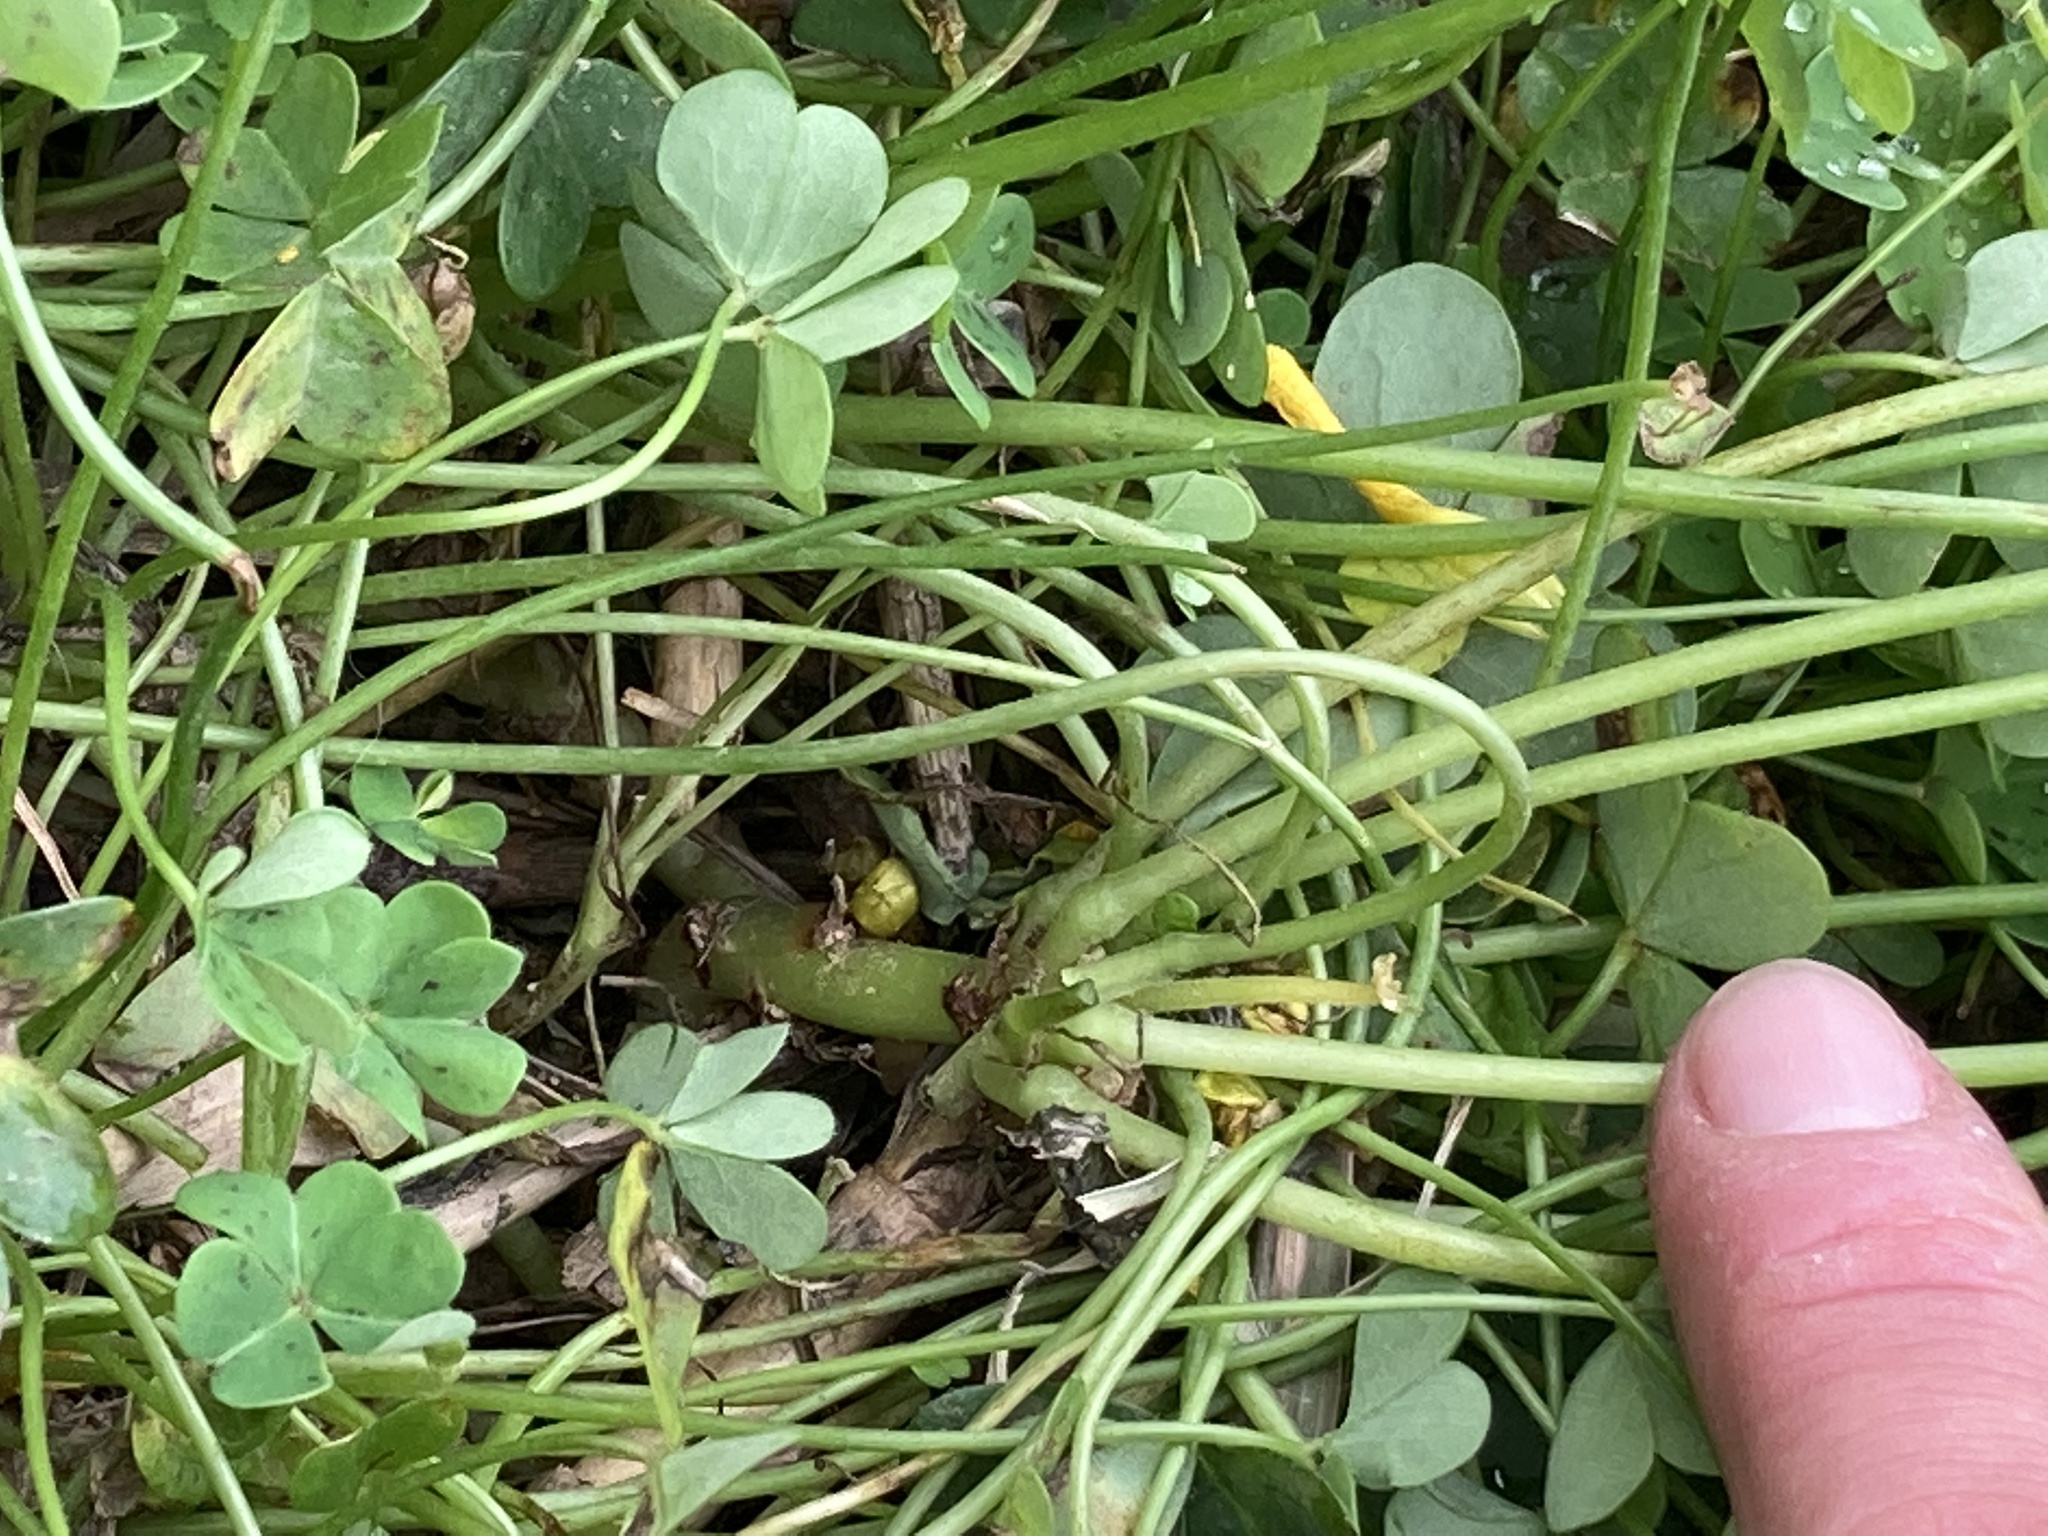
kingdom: Plantae
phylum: Tracheophyta
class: Magnoliopsida
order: Oxalidales
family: Oxalidaceae
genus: Oxalis
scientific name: Oxalis pes-caprae
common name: Bermuda-buttercup
